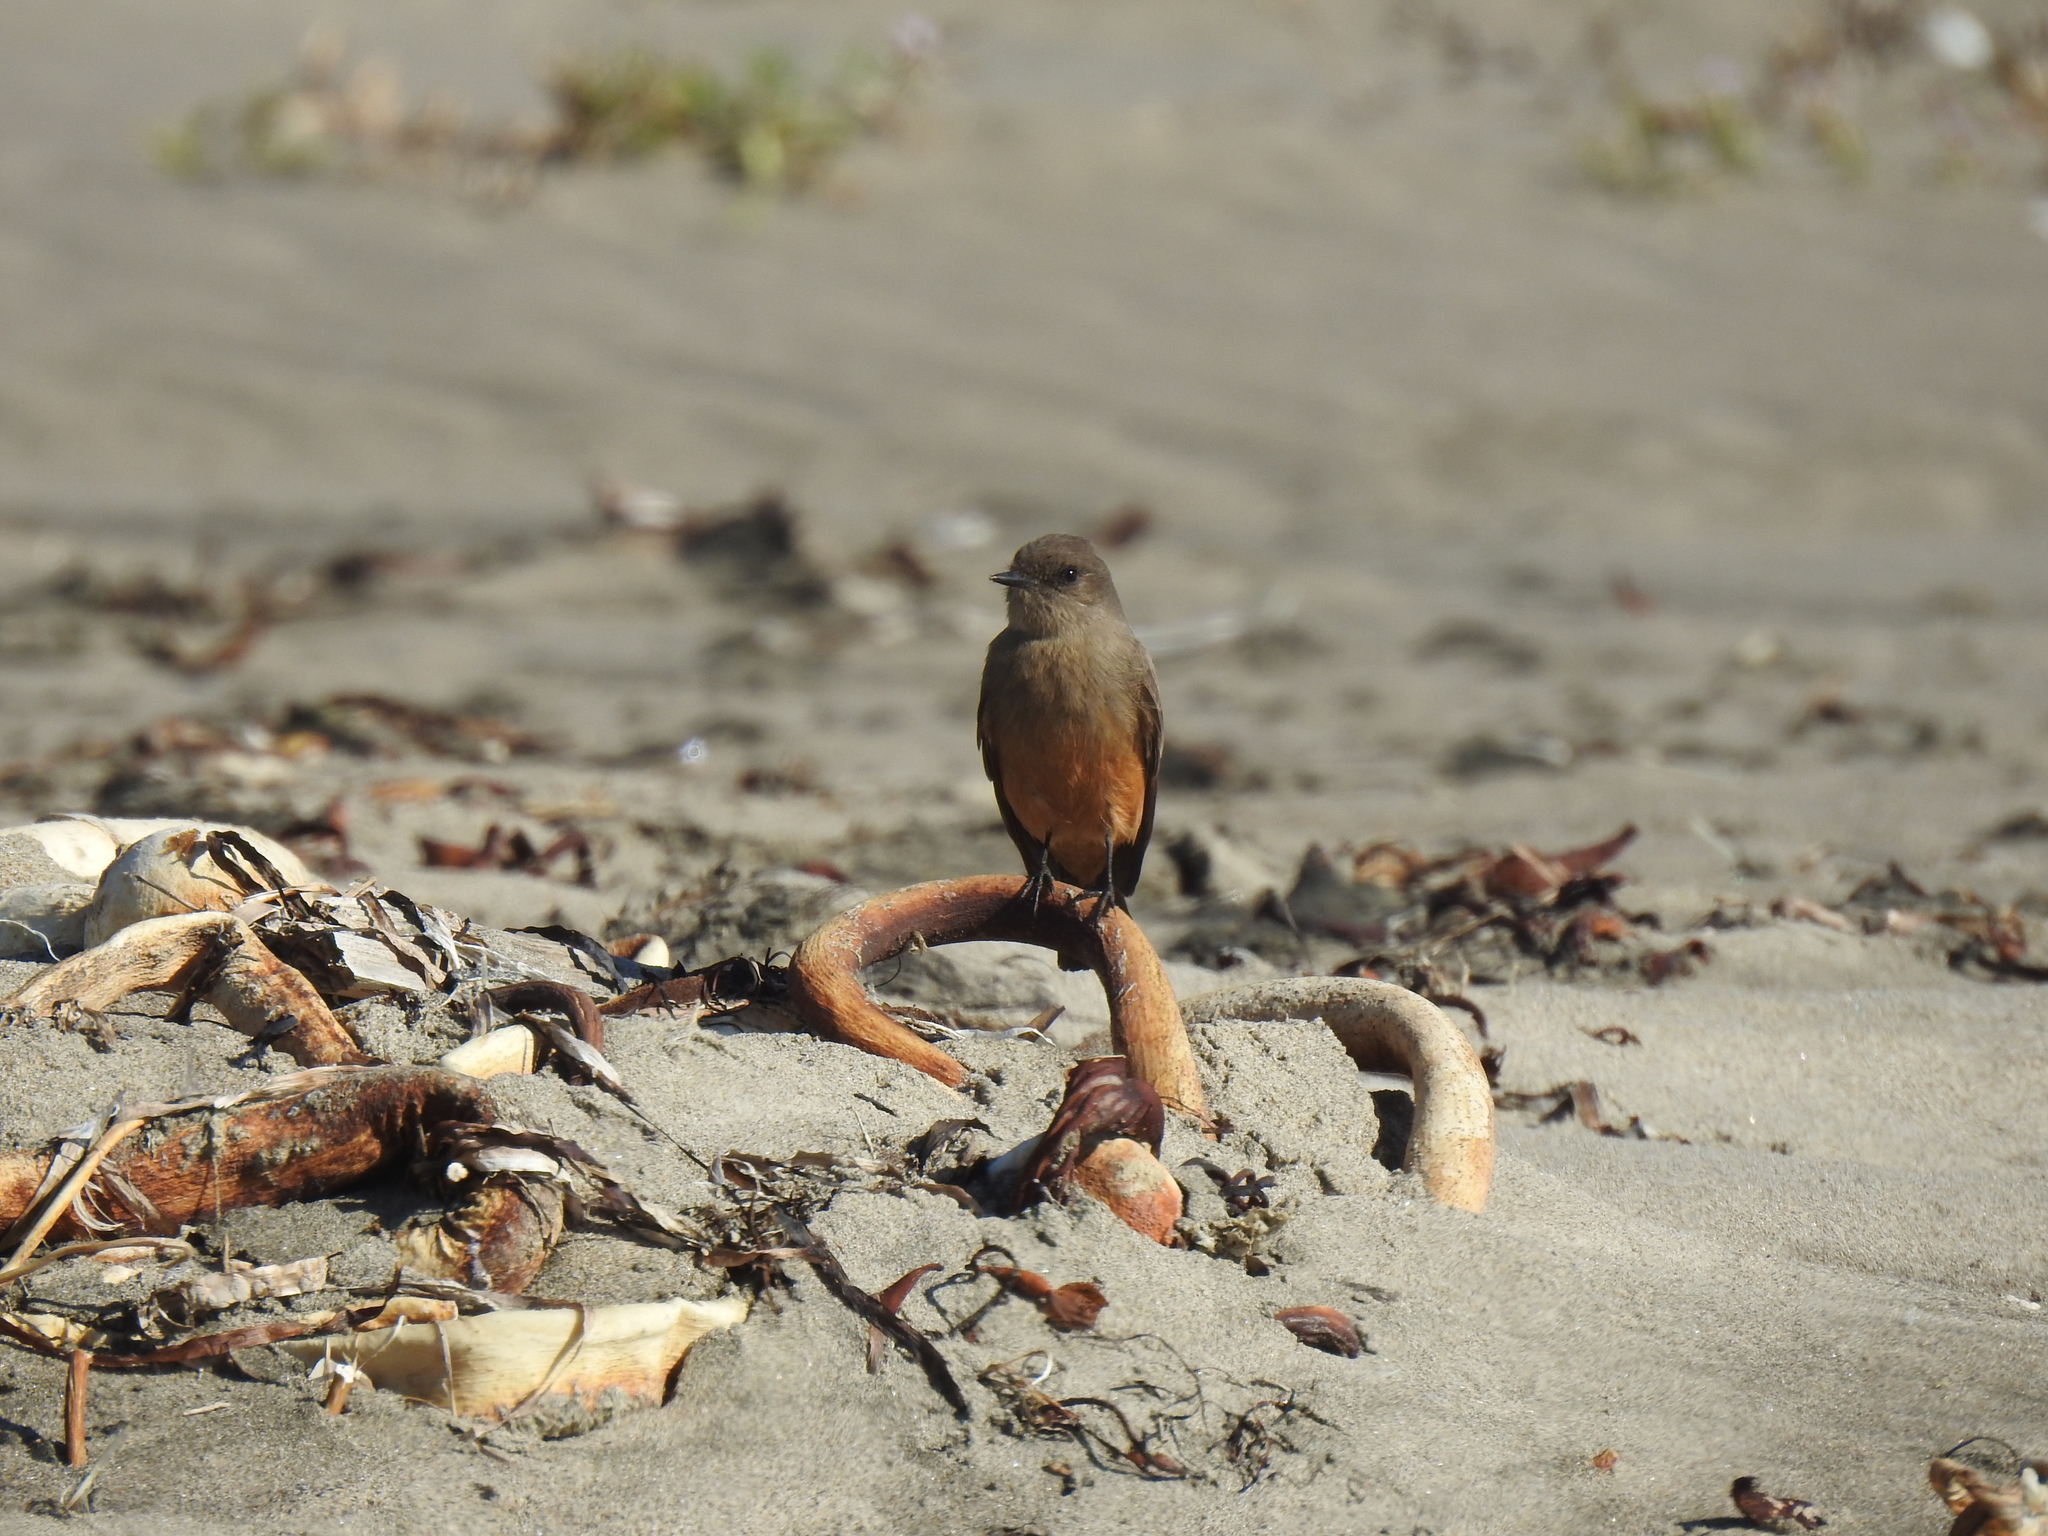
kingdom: Animalia
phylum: Chordata
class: Aves
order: Passeriformes
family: Tyrannidae
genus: Sayornis
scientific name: Sayornis saya
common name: Say's phoebe
